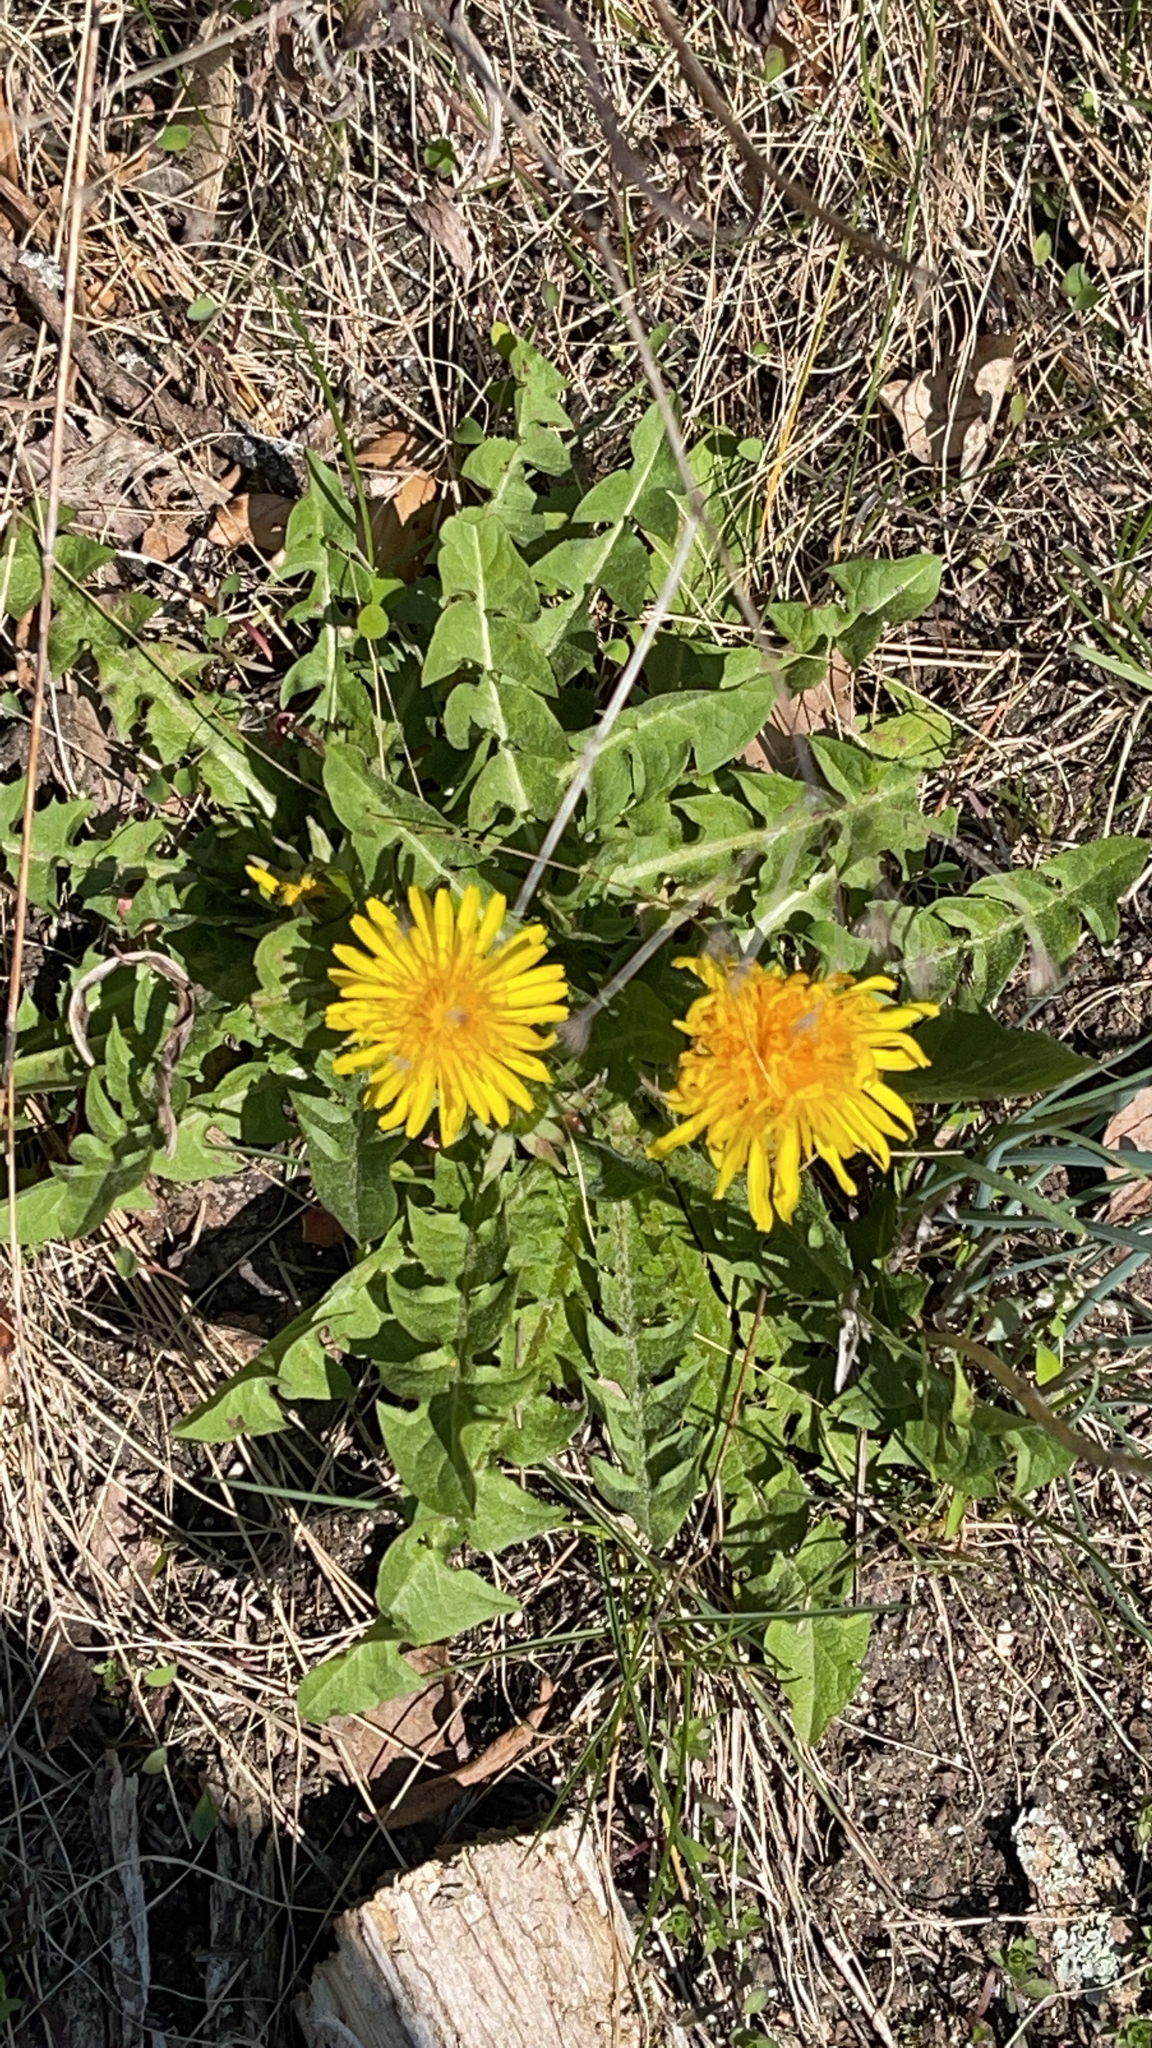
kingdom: Plantae
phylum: Tracheophyta
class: Magnoliopsida
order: Asterales
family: Asteraceae
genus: Taraxacum
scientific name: Taraxacum officinale
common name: Common dandelion
